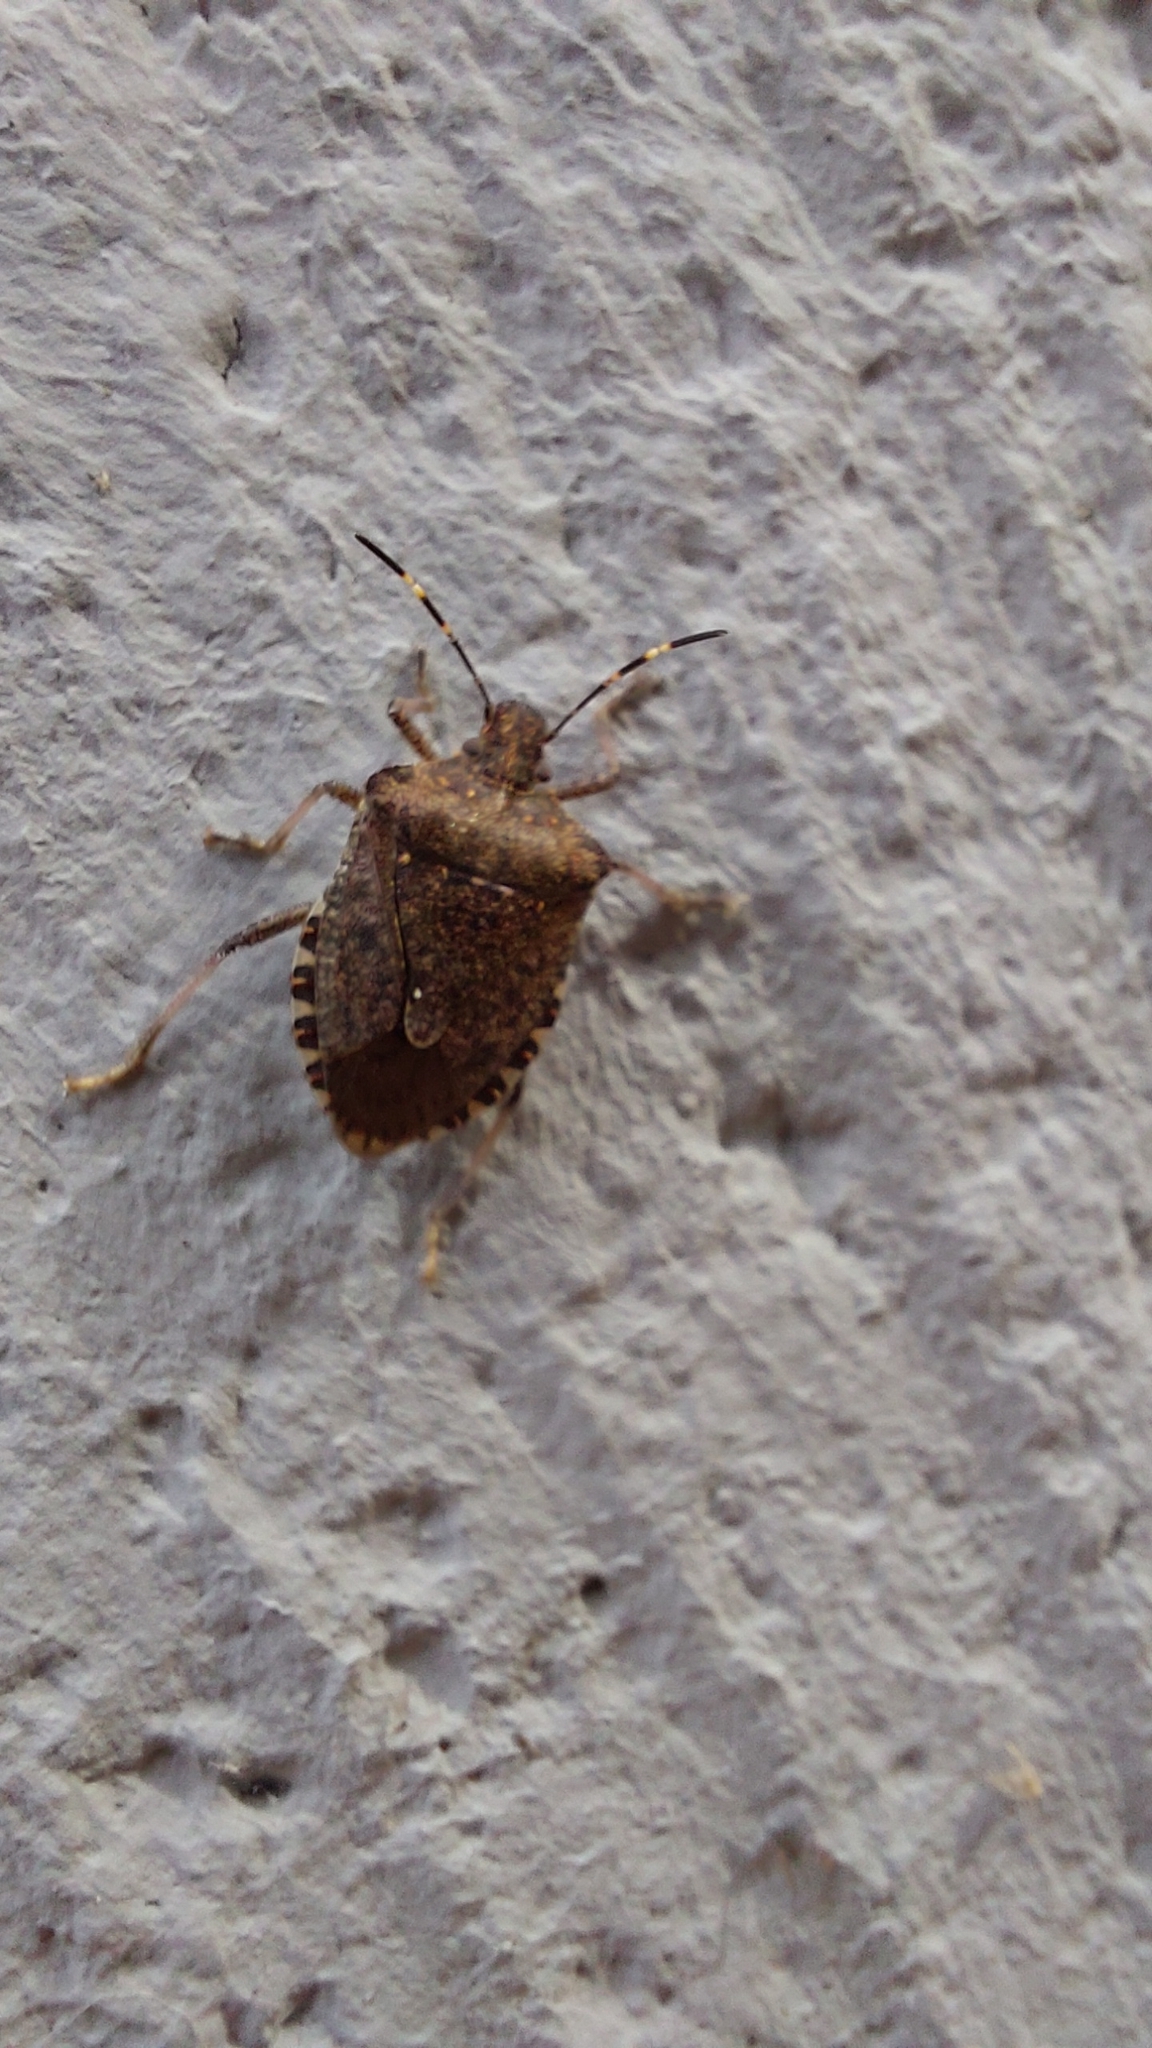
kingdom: Animalia
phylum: Arthropoda
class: Insecta
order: Hemiptera
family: Pentatomidae
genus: Halyomorpha
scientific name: Halyomorpha halys
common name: Brown marmorated stink bug
